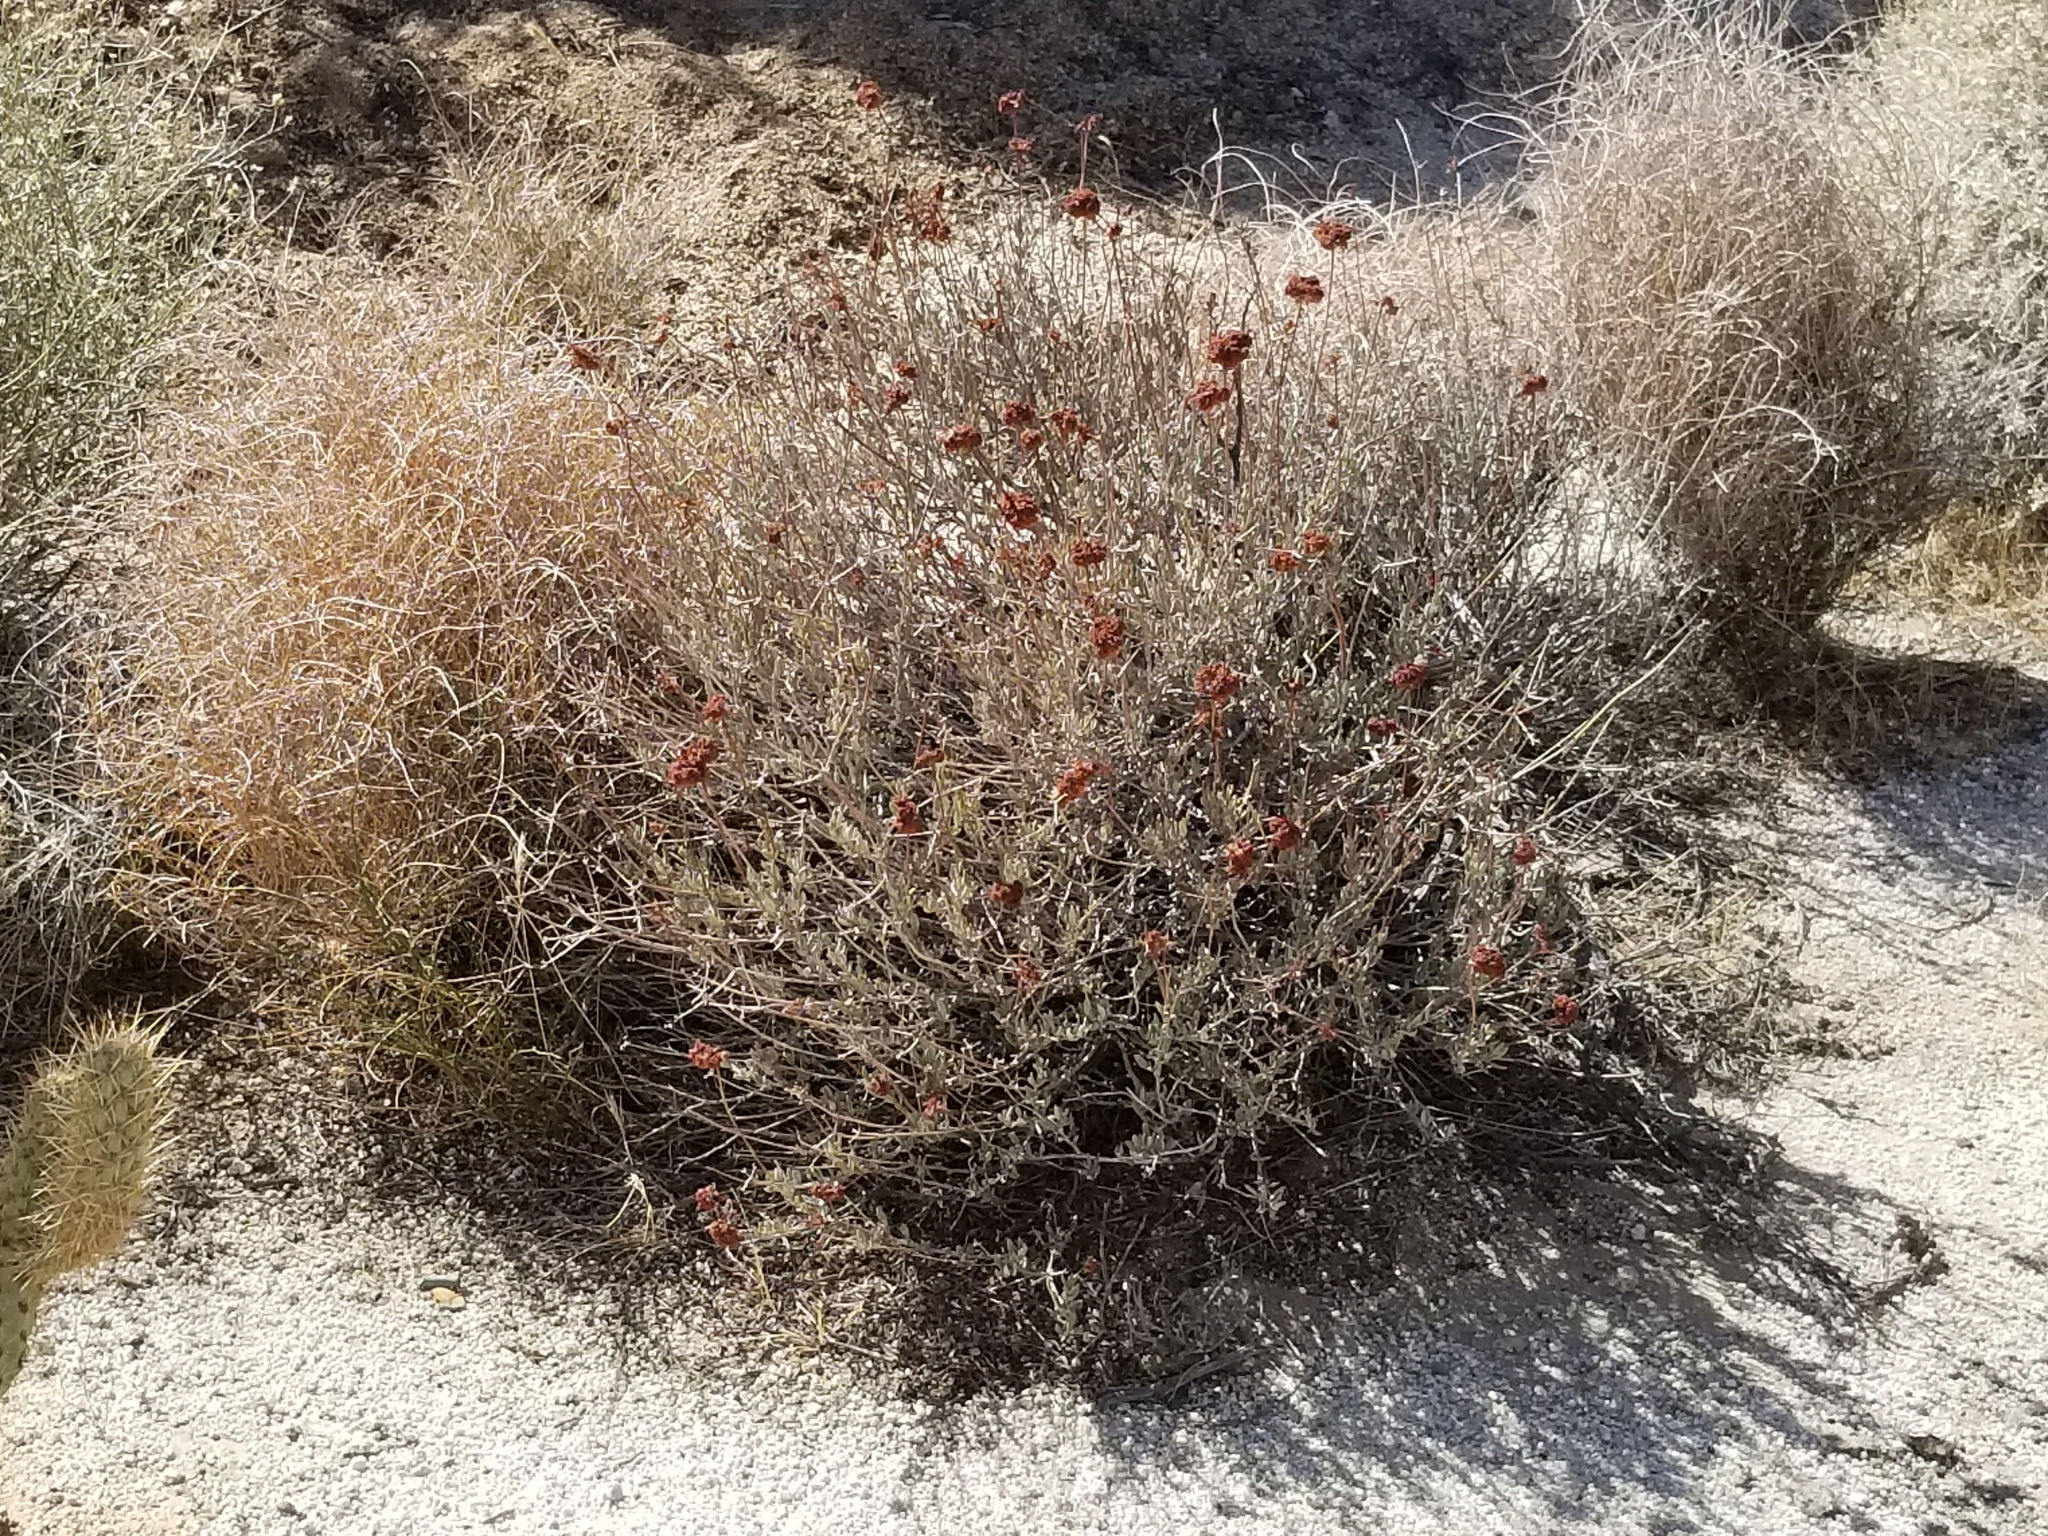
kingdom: Plantae
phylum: Tracheophyta
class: Magnoliopsida
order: Caryophyllales
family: Polygonaceae
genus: Eriogonum
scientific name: Eriogonum fasciculatum
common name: California wild buckwheat
